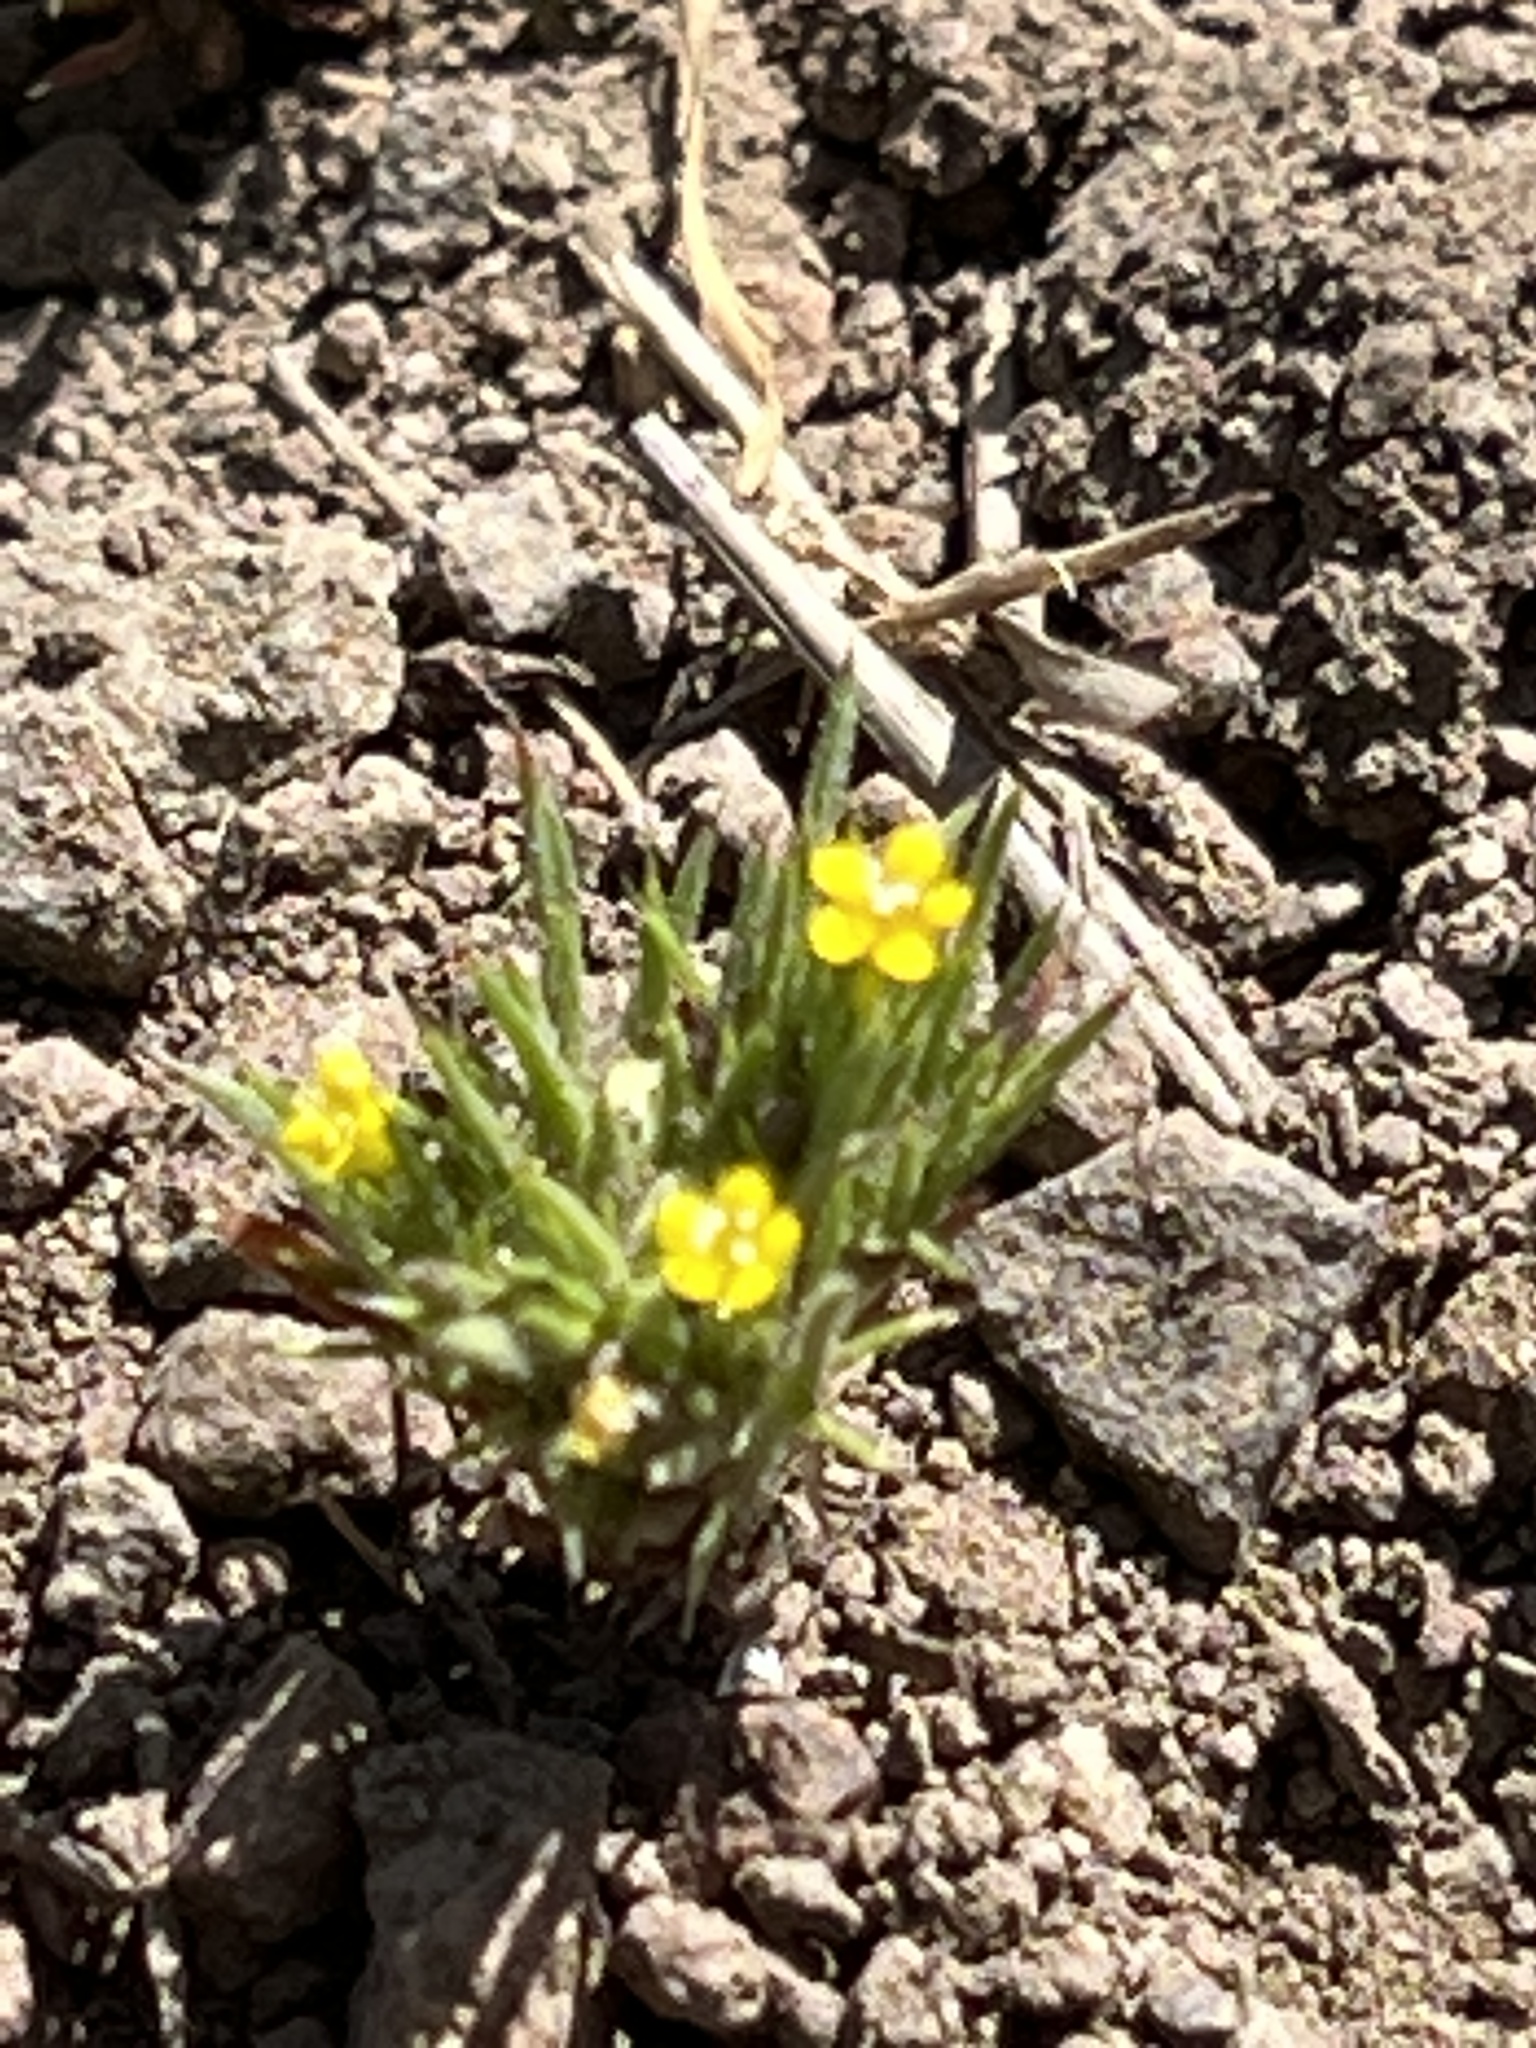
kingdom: Plantae
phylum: Tracheophyta
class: Magnoliopsida
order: Ericales
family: Polemoniaceae
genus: Navarretia
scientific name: Navarretia breweri
